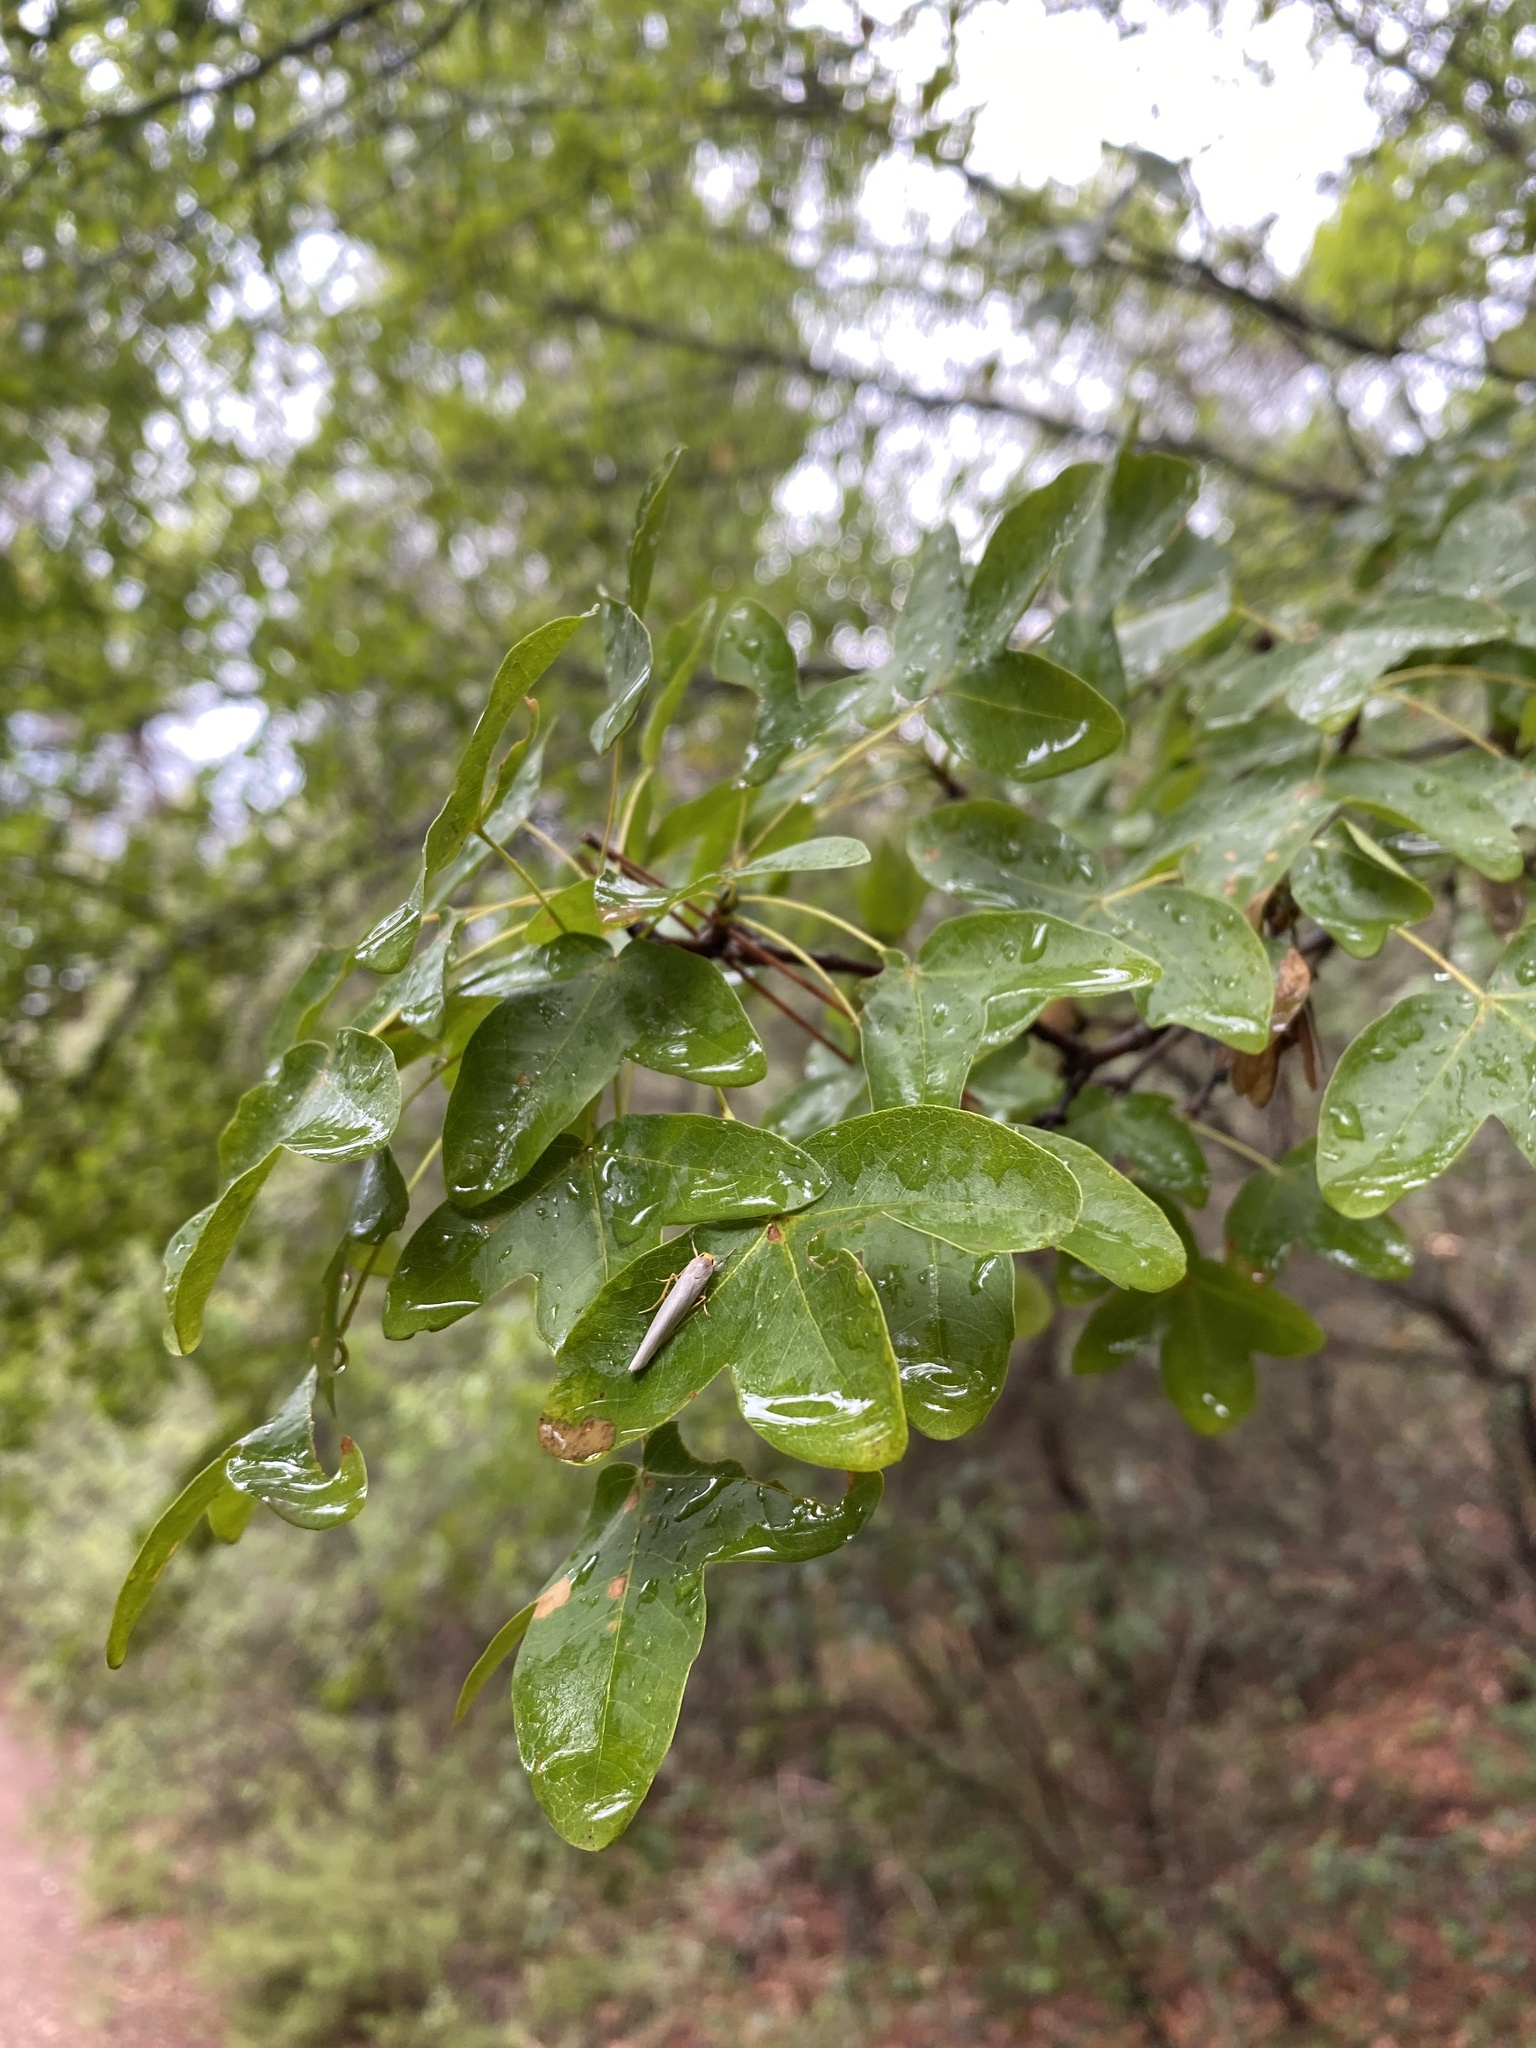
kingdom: Plantae
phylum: Tracheophyta
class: Magnoliopsida
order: Sapindales
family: Sapindaceae
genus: Acer
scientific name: Acer monspessulanum
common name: Montpellier maple
